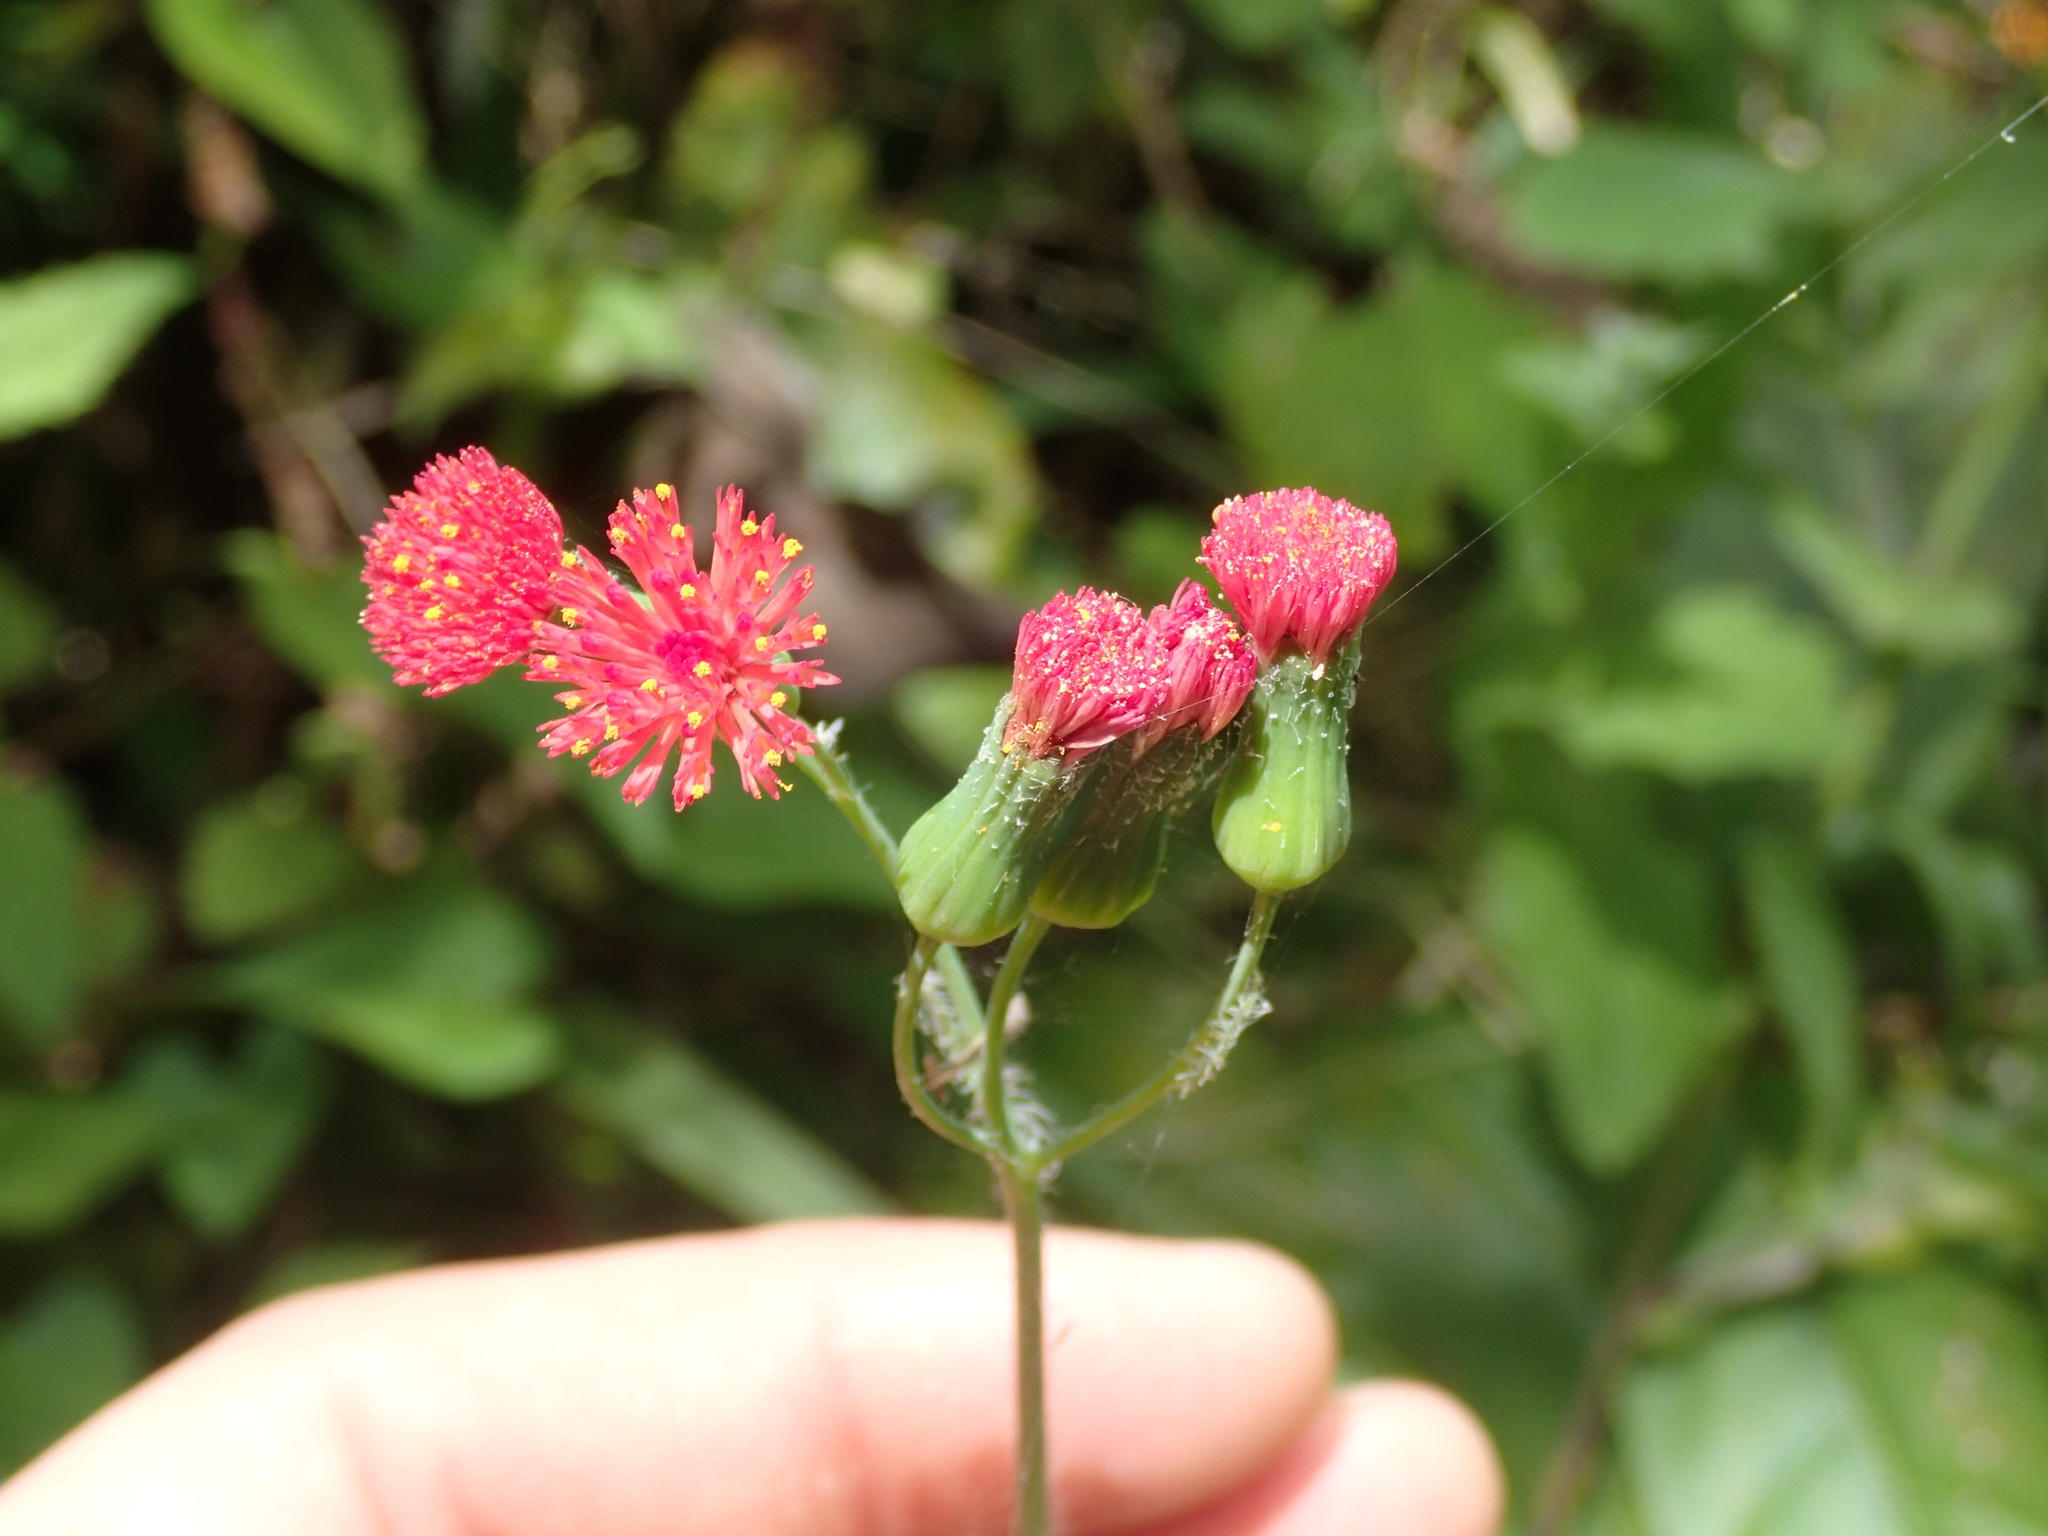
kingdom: Plantae
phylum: Tracheophyta
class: Magnoliopsida
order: Asterales
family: Asteraceae
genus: Emilia
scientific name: Emilia fosbergii
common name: Florida tasselflower
